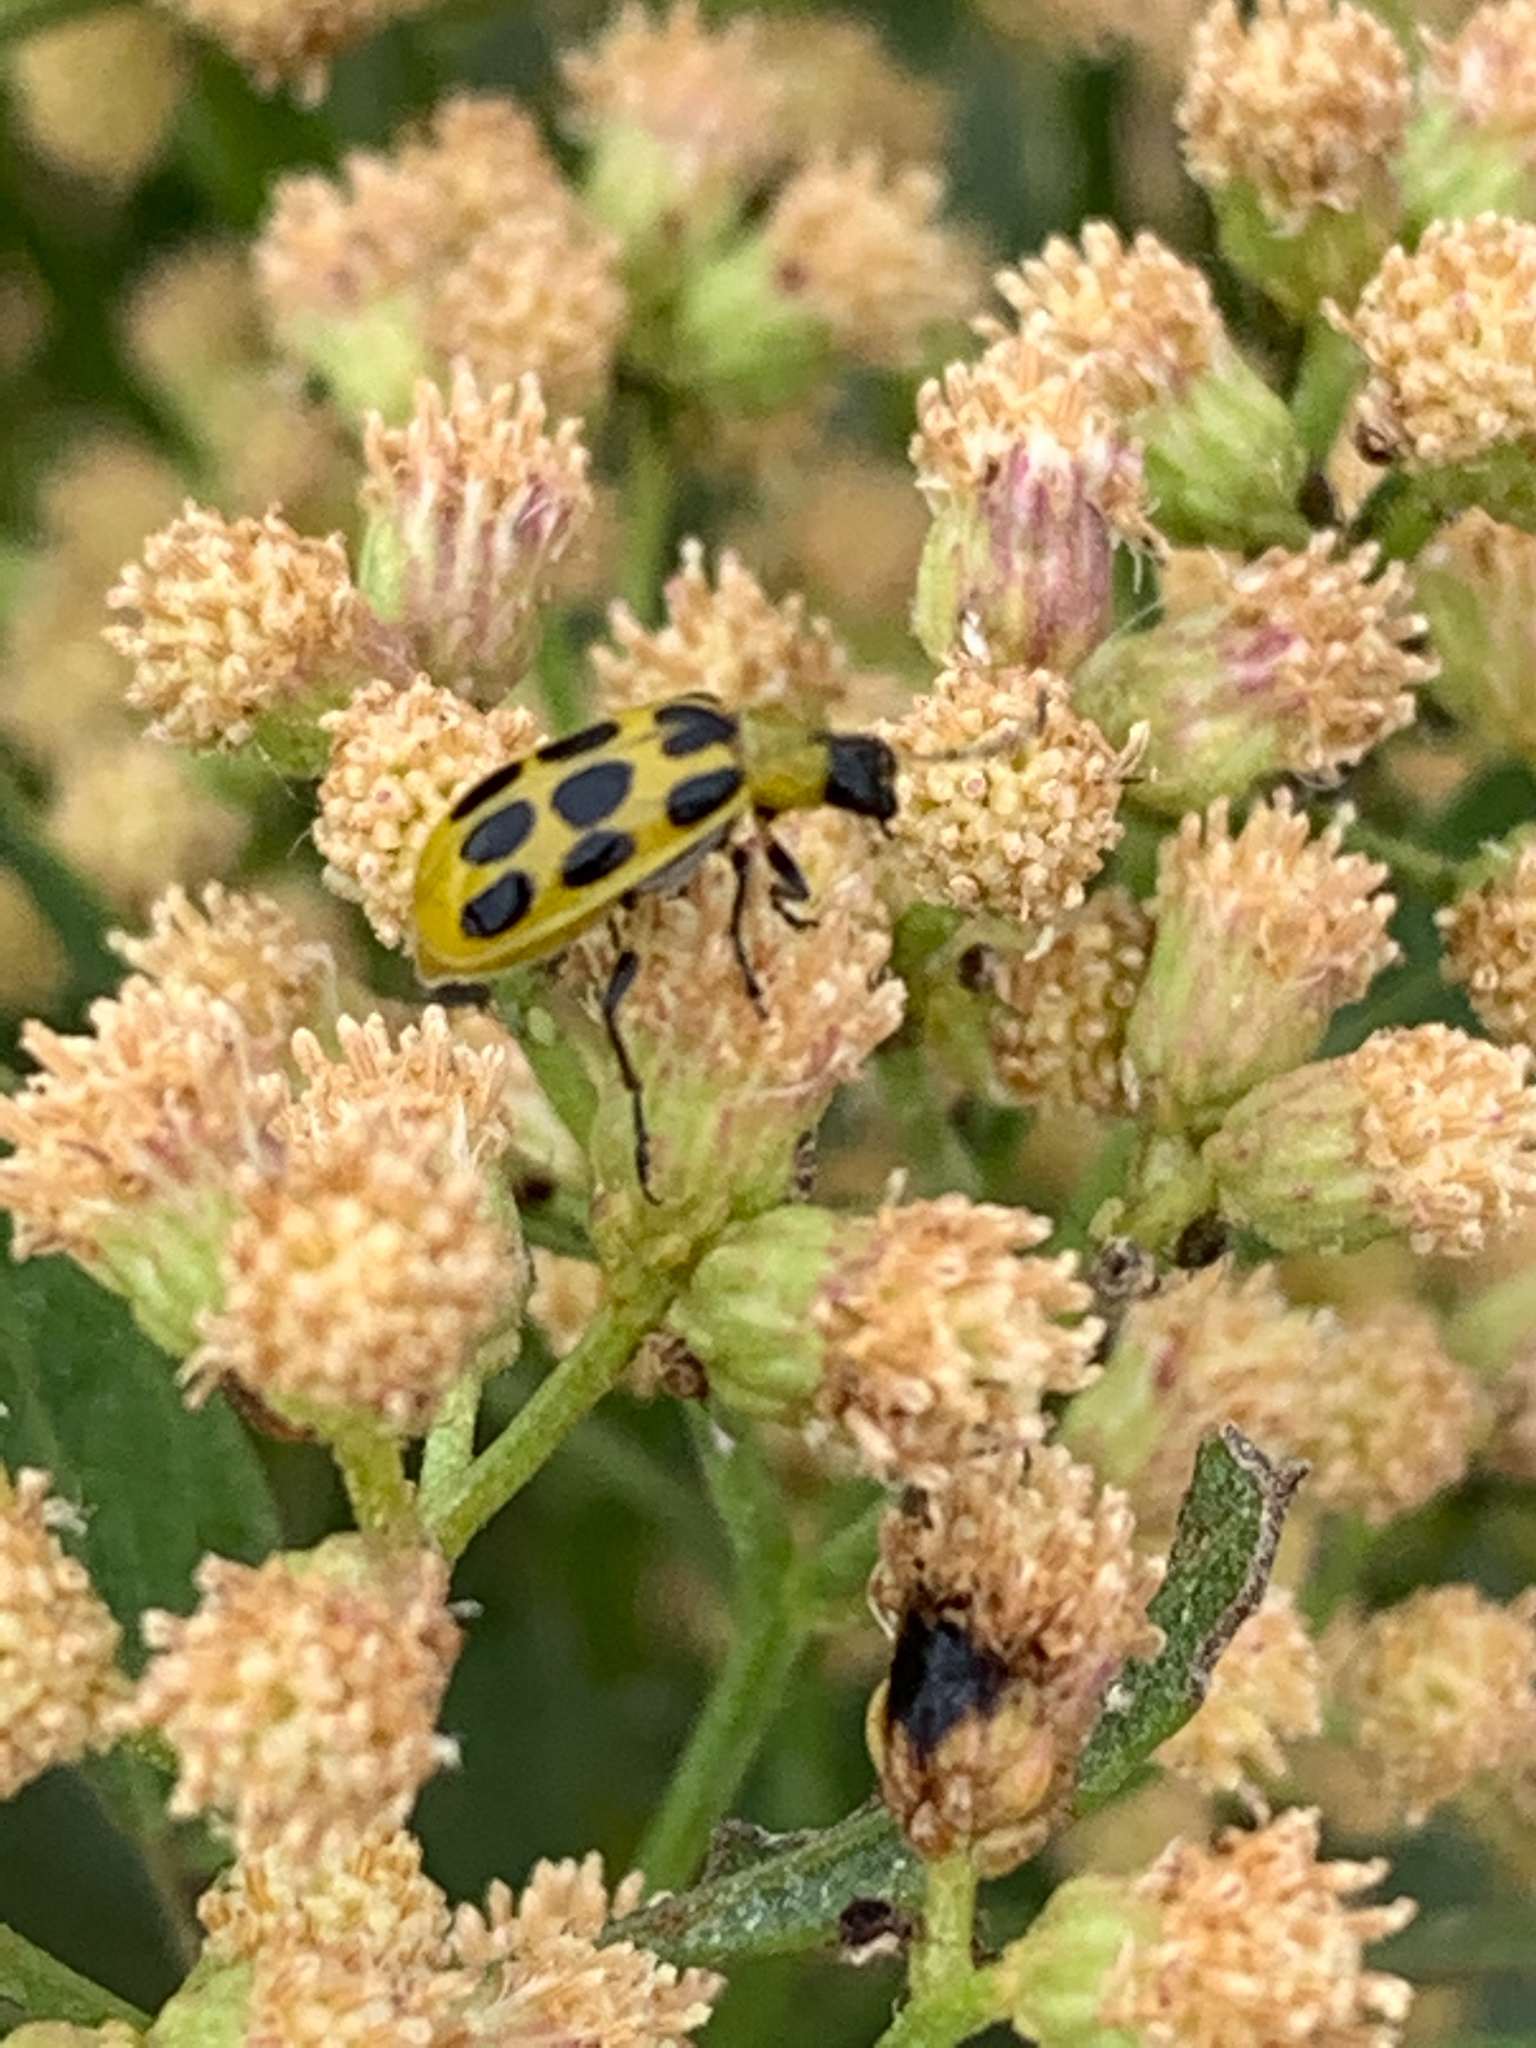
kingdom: Animalia
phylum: Arthropoda
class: Insecta
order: Coleoptera
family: Chrysomelidae
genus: Diabrotica
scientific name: Diabrotica undecimpunctata
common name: Spotted cucumber beetle
